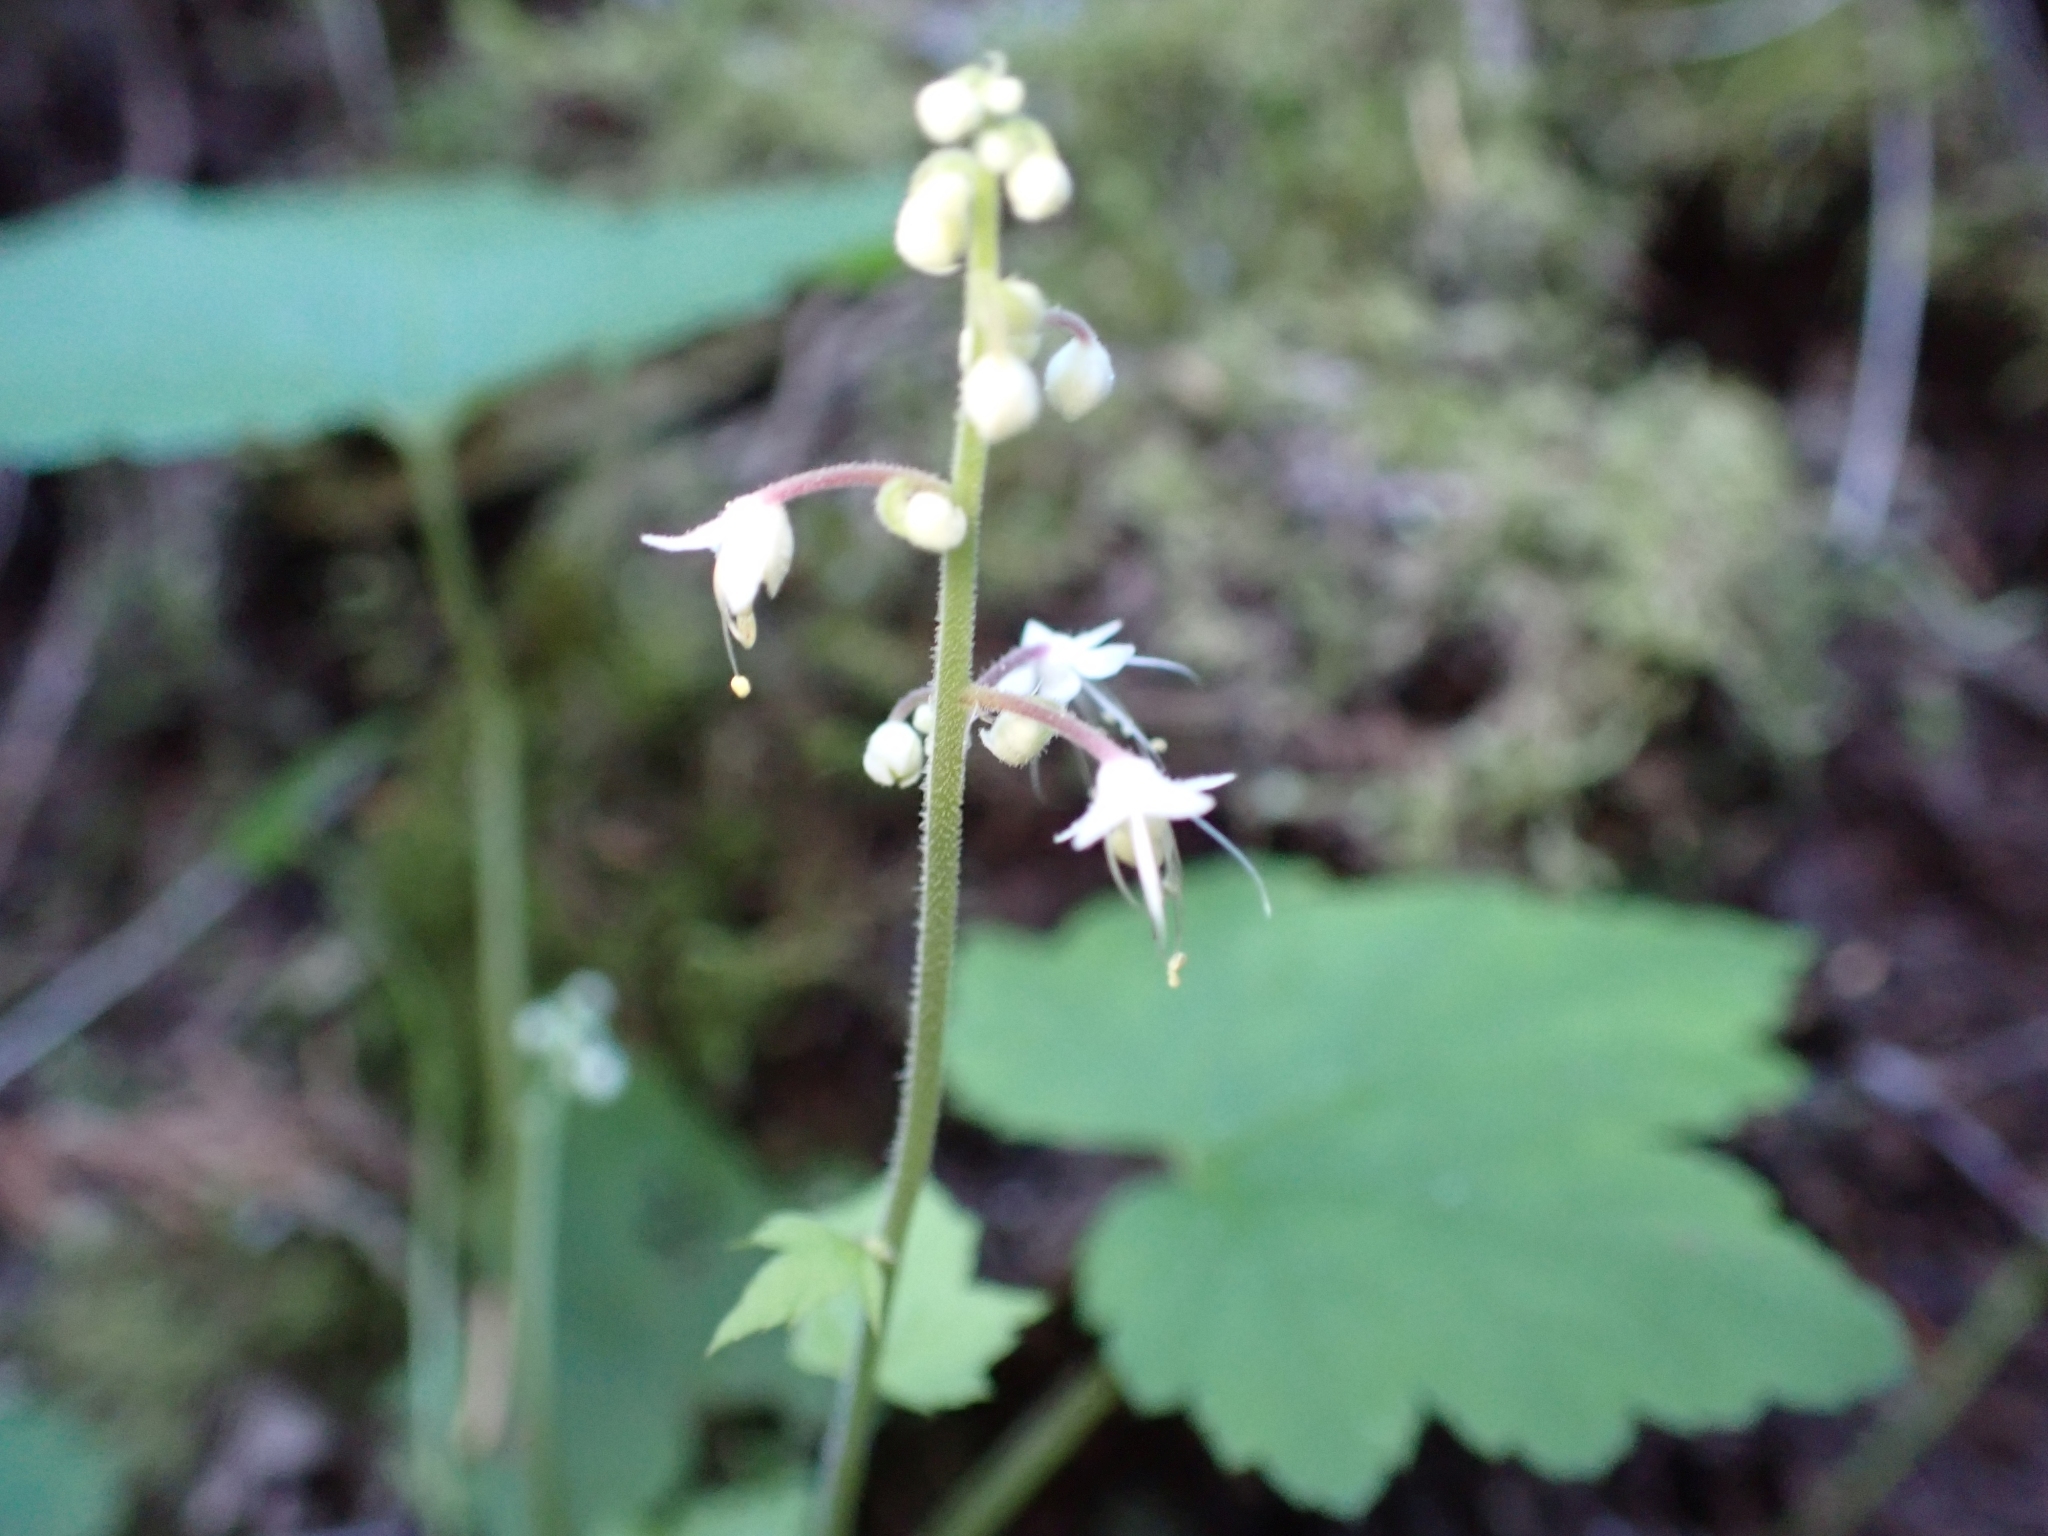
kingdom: Plantae
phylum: Tracheophyta
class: Magnoliopsida
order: Saxifragales
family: Saxifragaceae
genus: Tiarella
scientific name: Tiarella trifoliata
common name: Sugar-scoop
